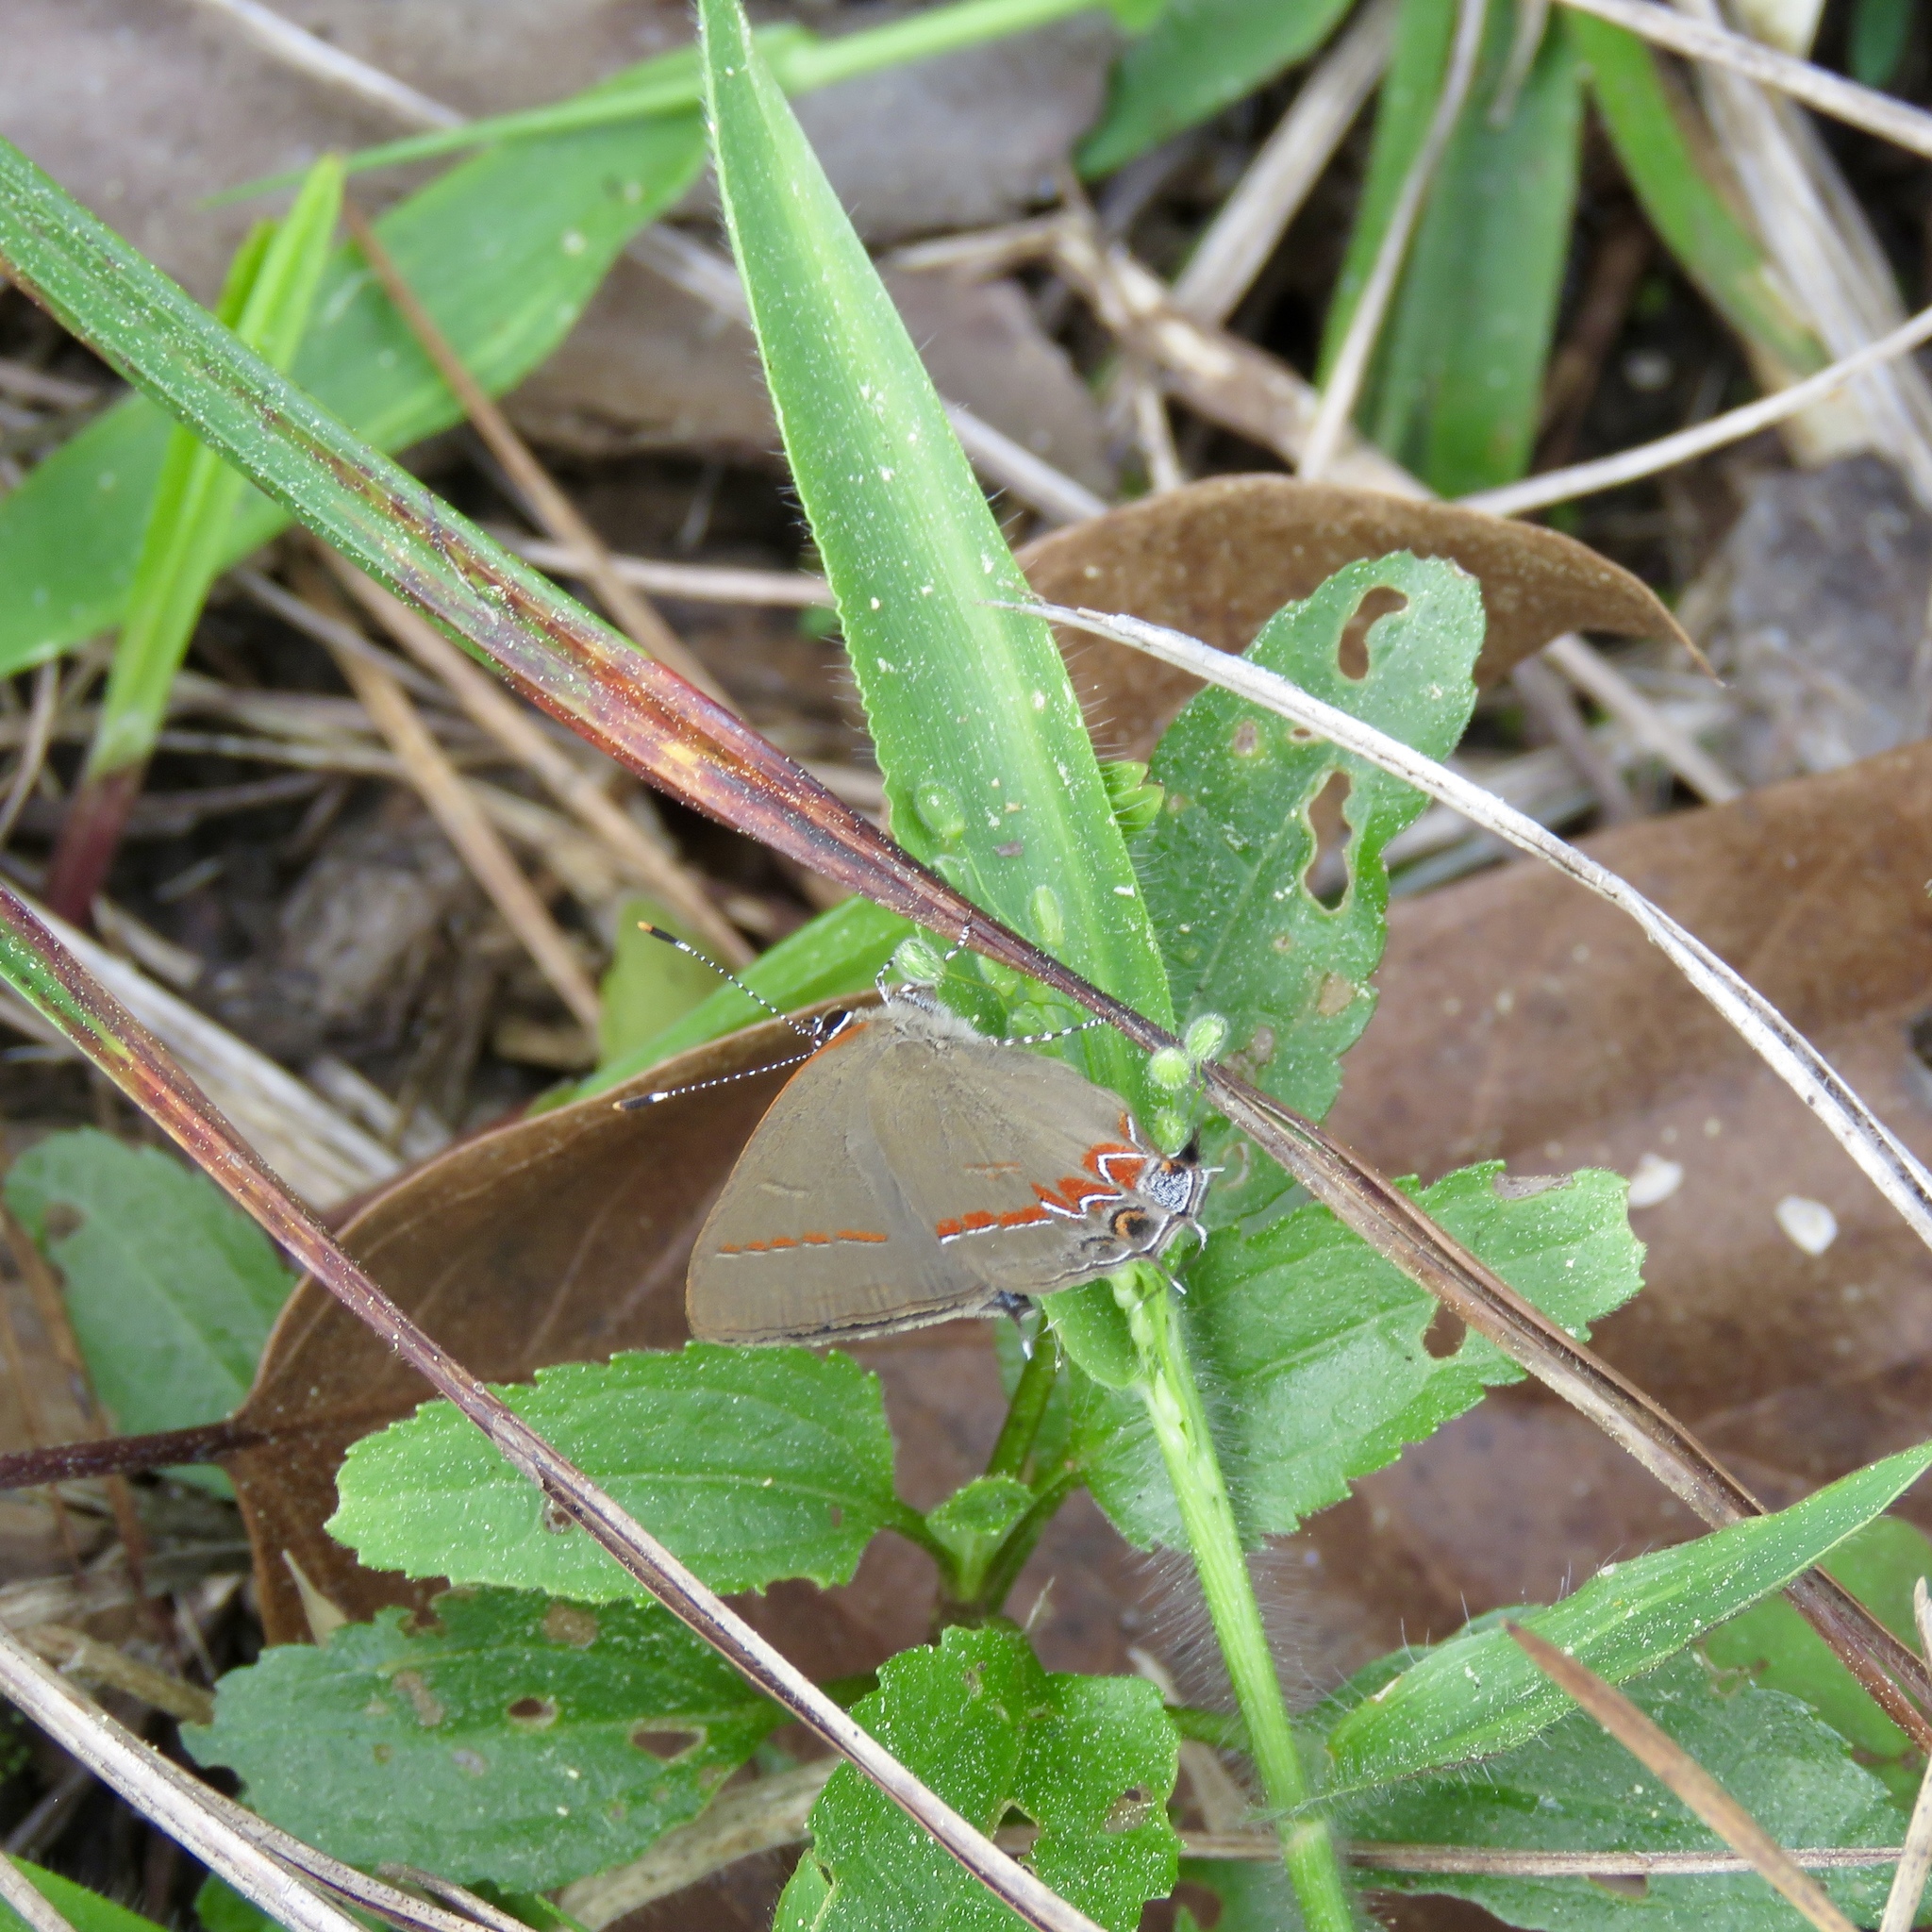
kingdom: Animalia
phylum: Arthropoda
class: Insecta
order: Lepidoptera
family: Lycaenidae
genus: Calycopis
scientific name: Calycopis cecrops
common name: Red-banded hairstreak
